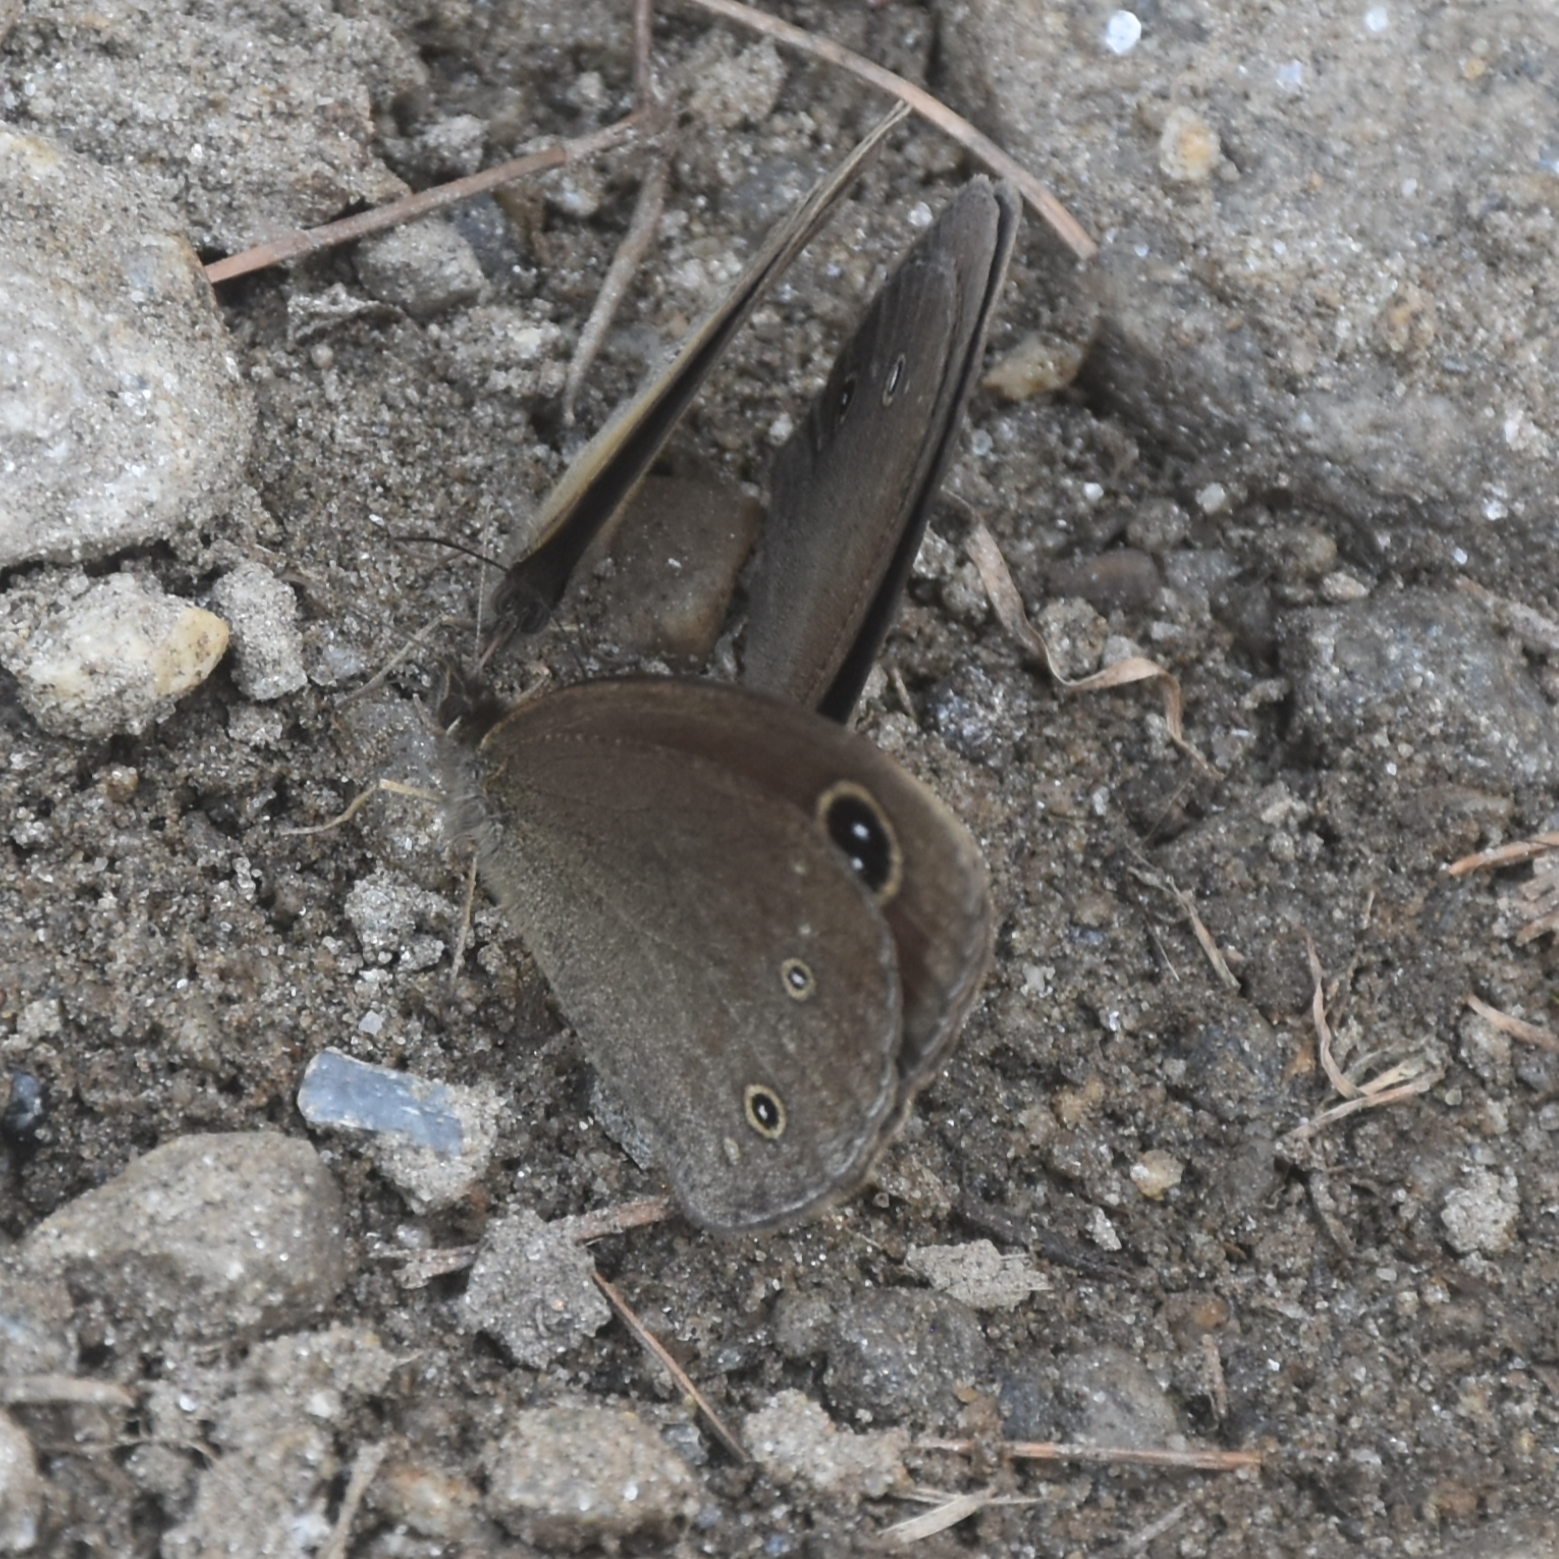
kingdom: Animalia
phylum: Arthropoda
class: Insecta
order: Lepidoptera
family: Nymphalidae
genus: Callerebia
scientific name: Callerebia nirmala
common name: Common argus
